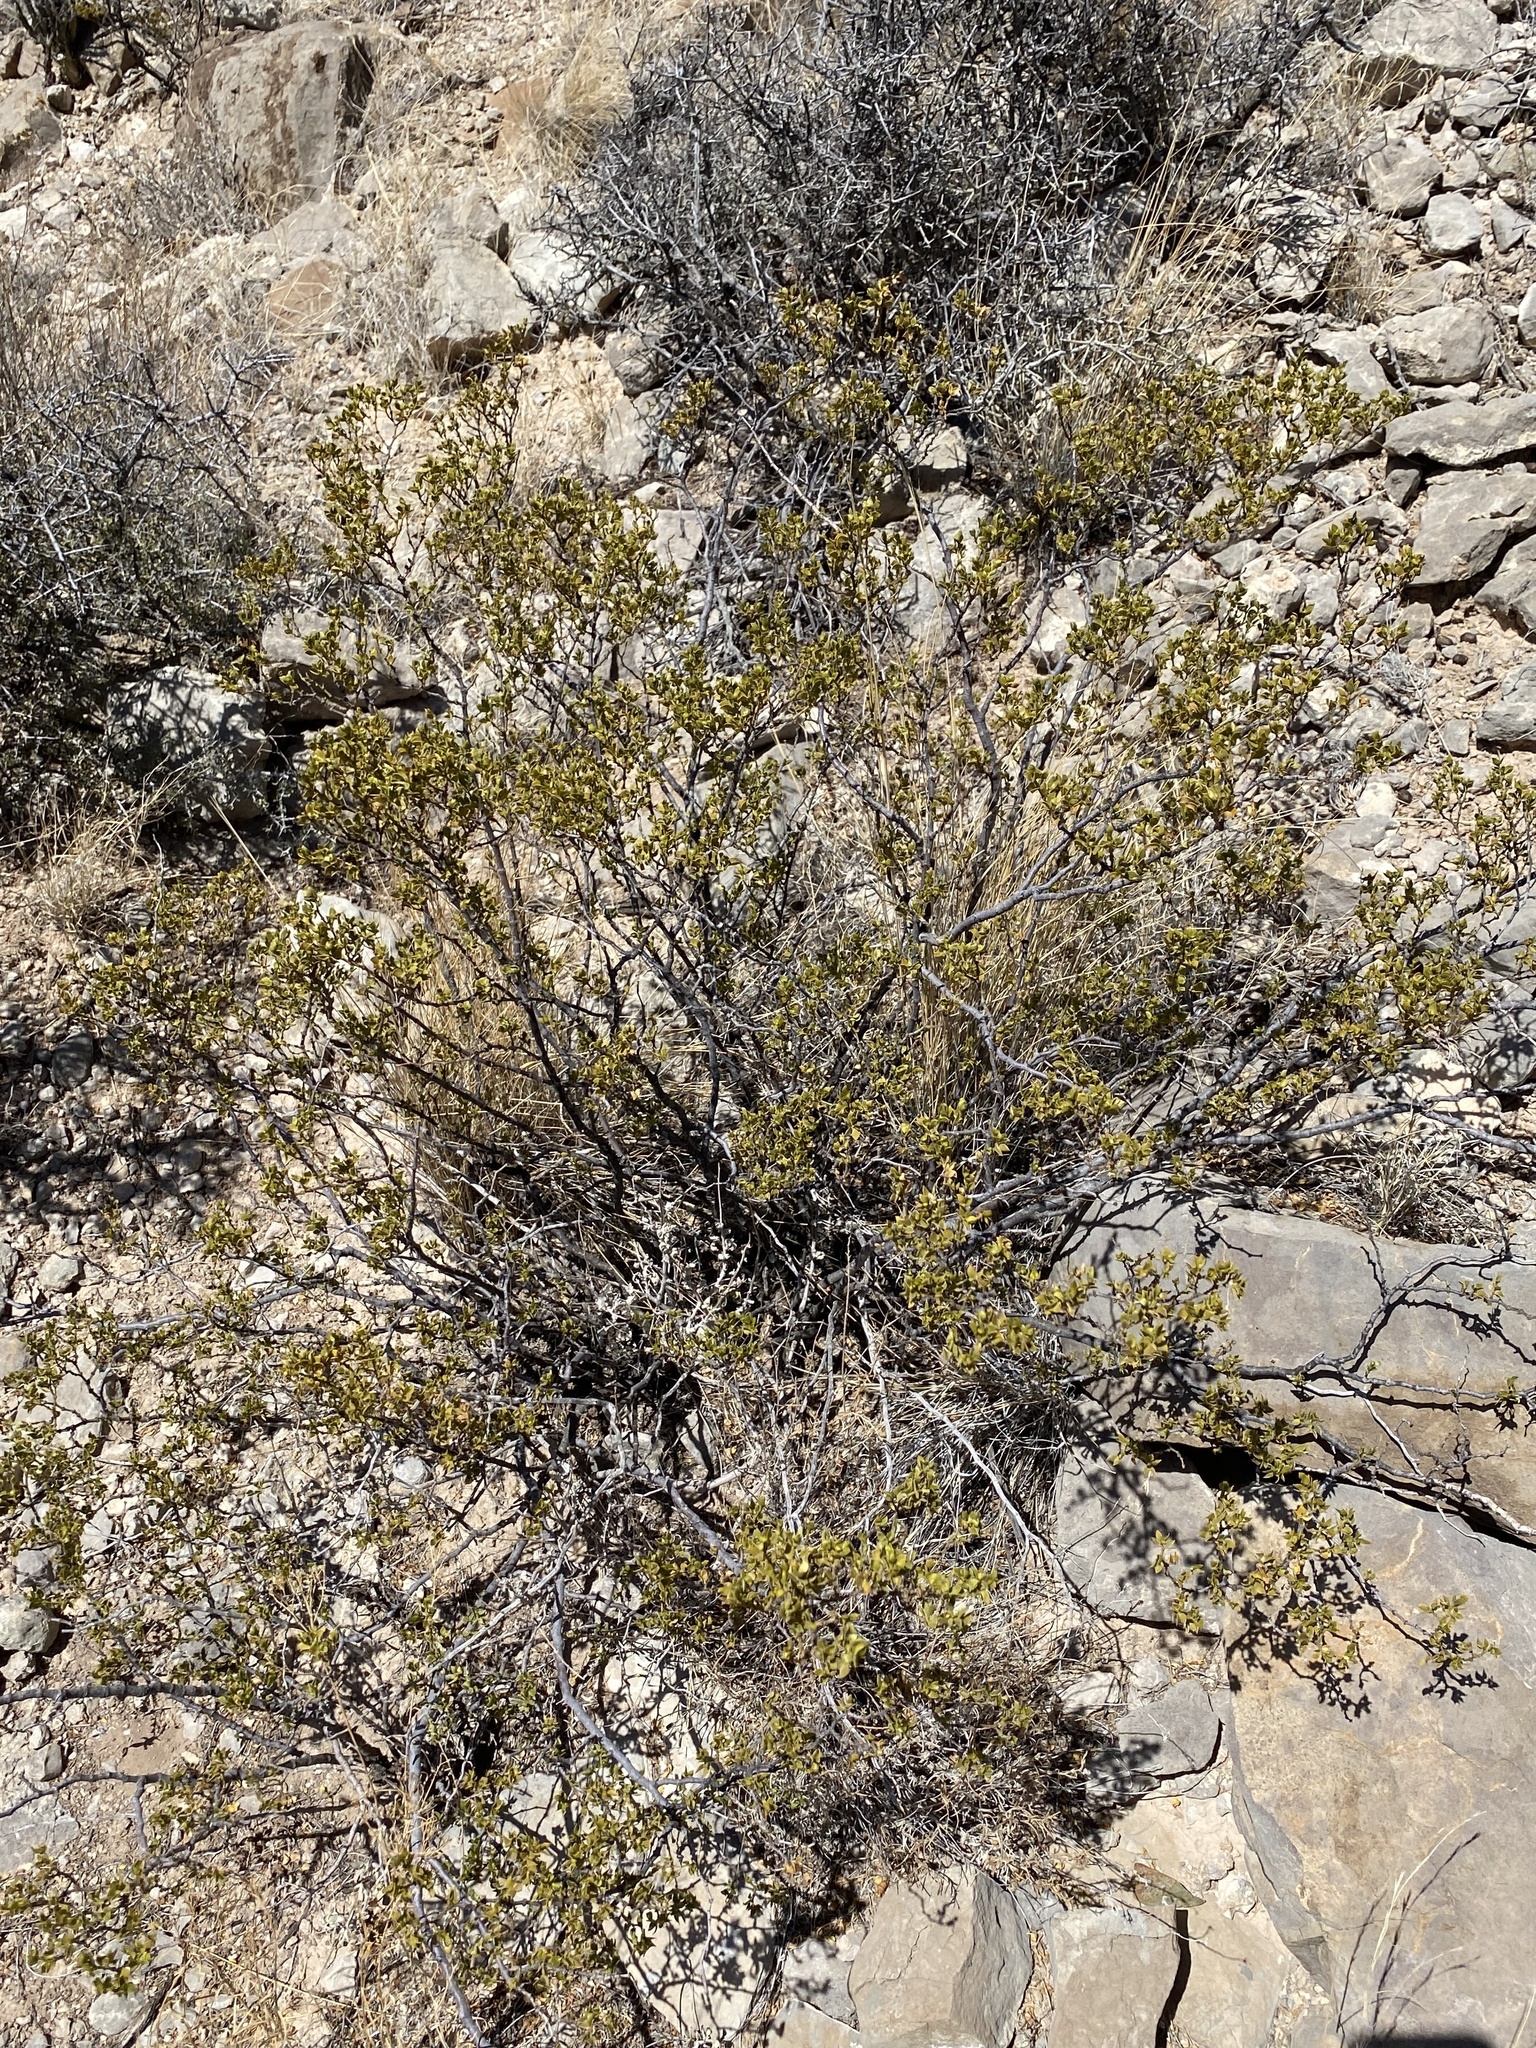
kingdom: Plantae
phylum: Tracheophyta
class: Magnoliopsida
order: Zygophyllales
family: Zygophyllaceae
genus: Larrea
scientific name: Larrea tridentata
